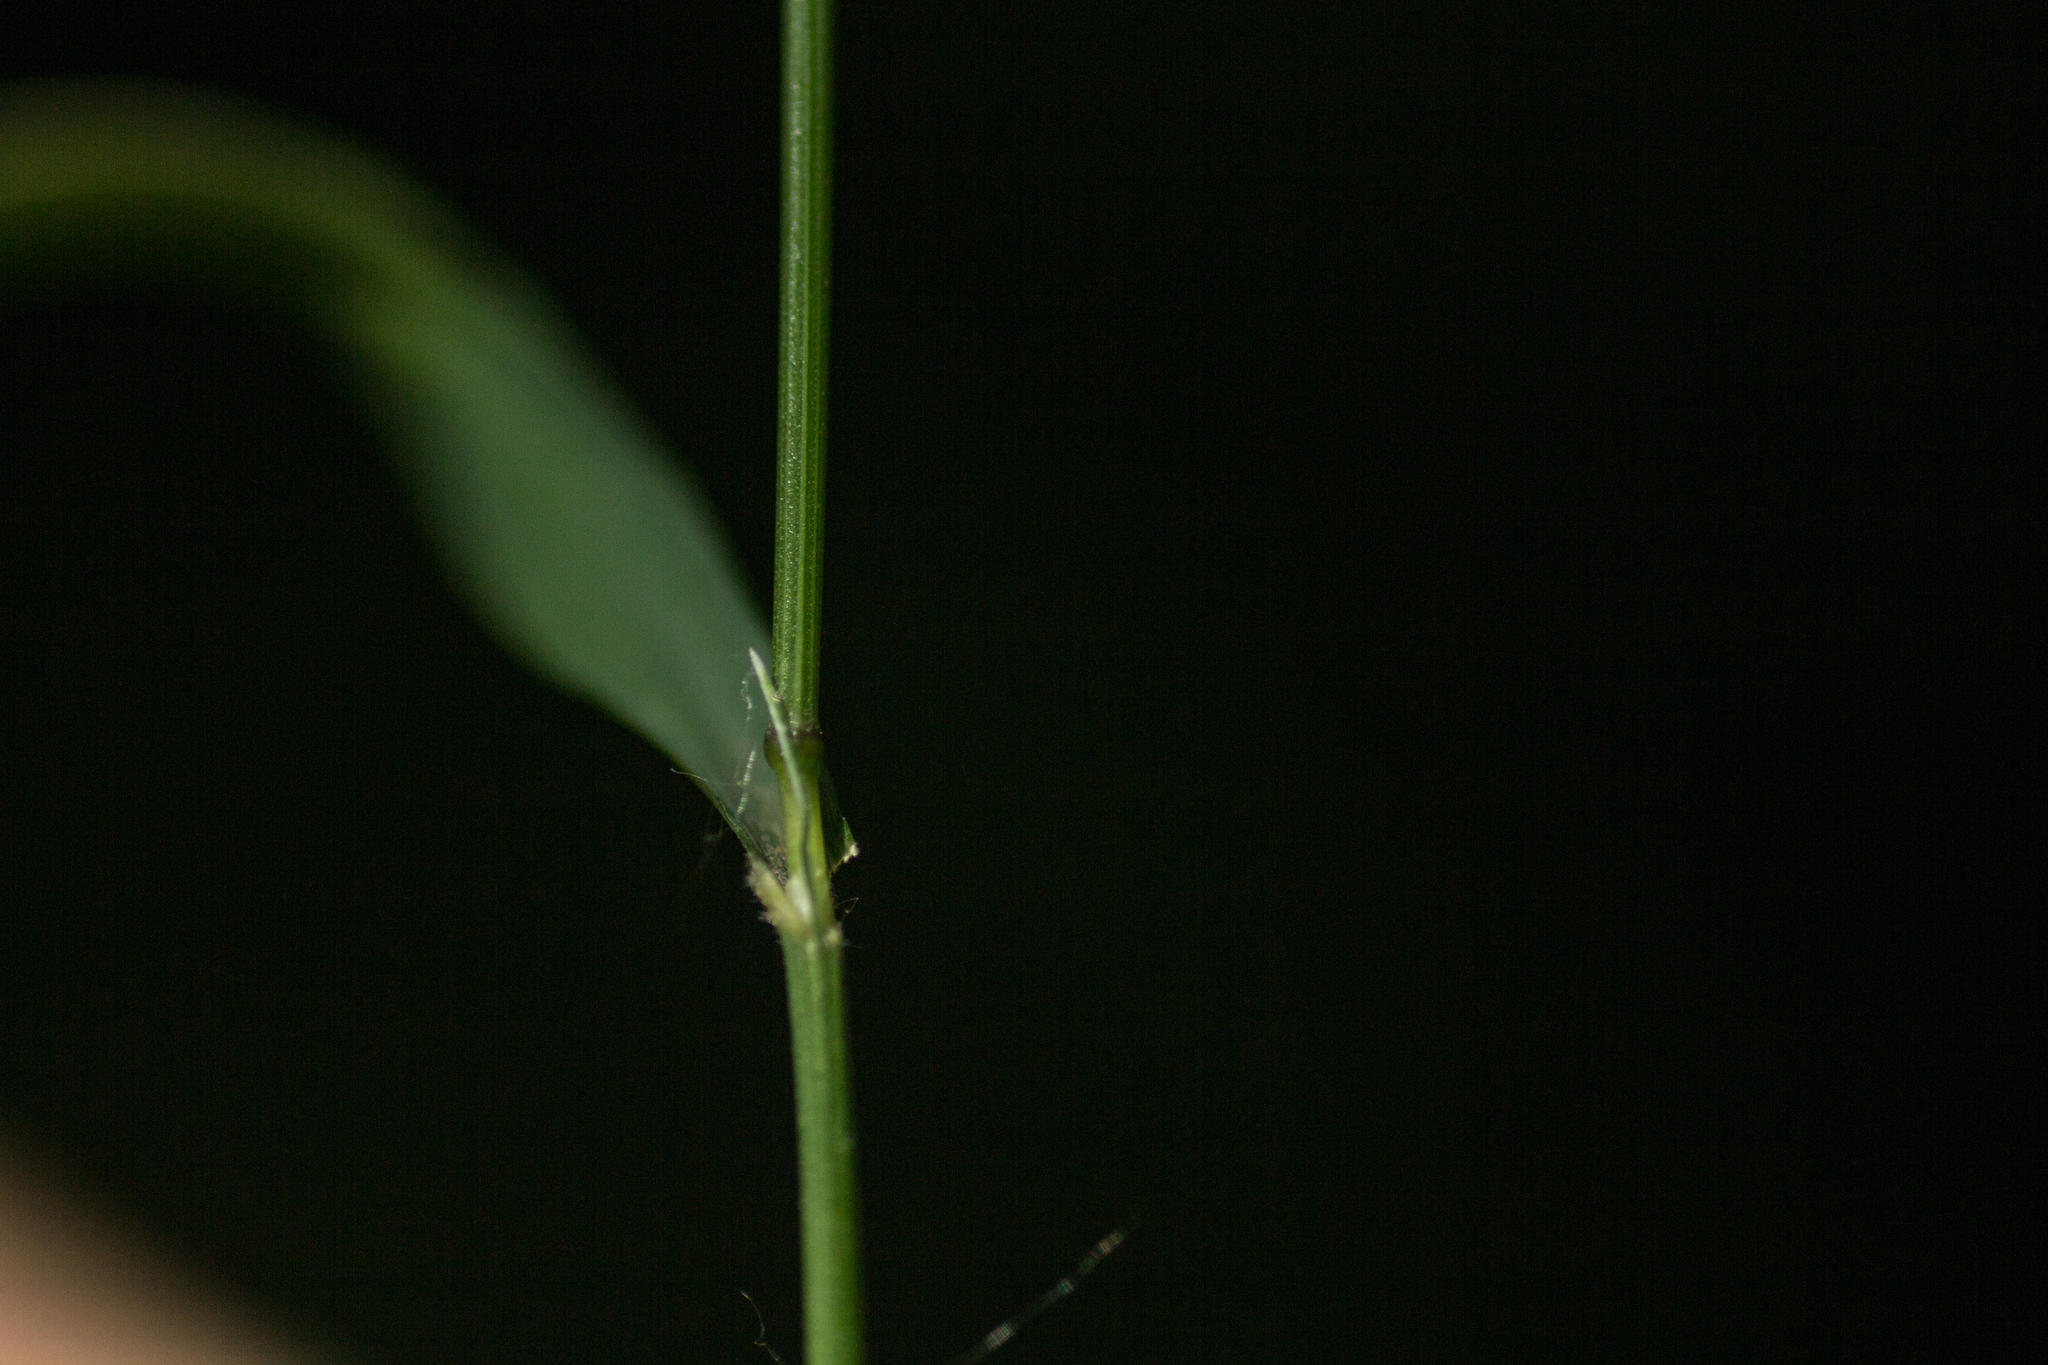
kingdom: Plantae
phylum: Tracheophyta
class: Liliopsida
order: Poales
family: Poaceae
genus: Melica
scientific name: Melica uniflora
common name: Wood melick
